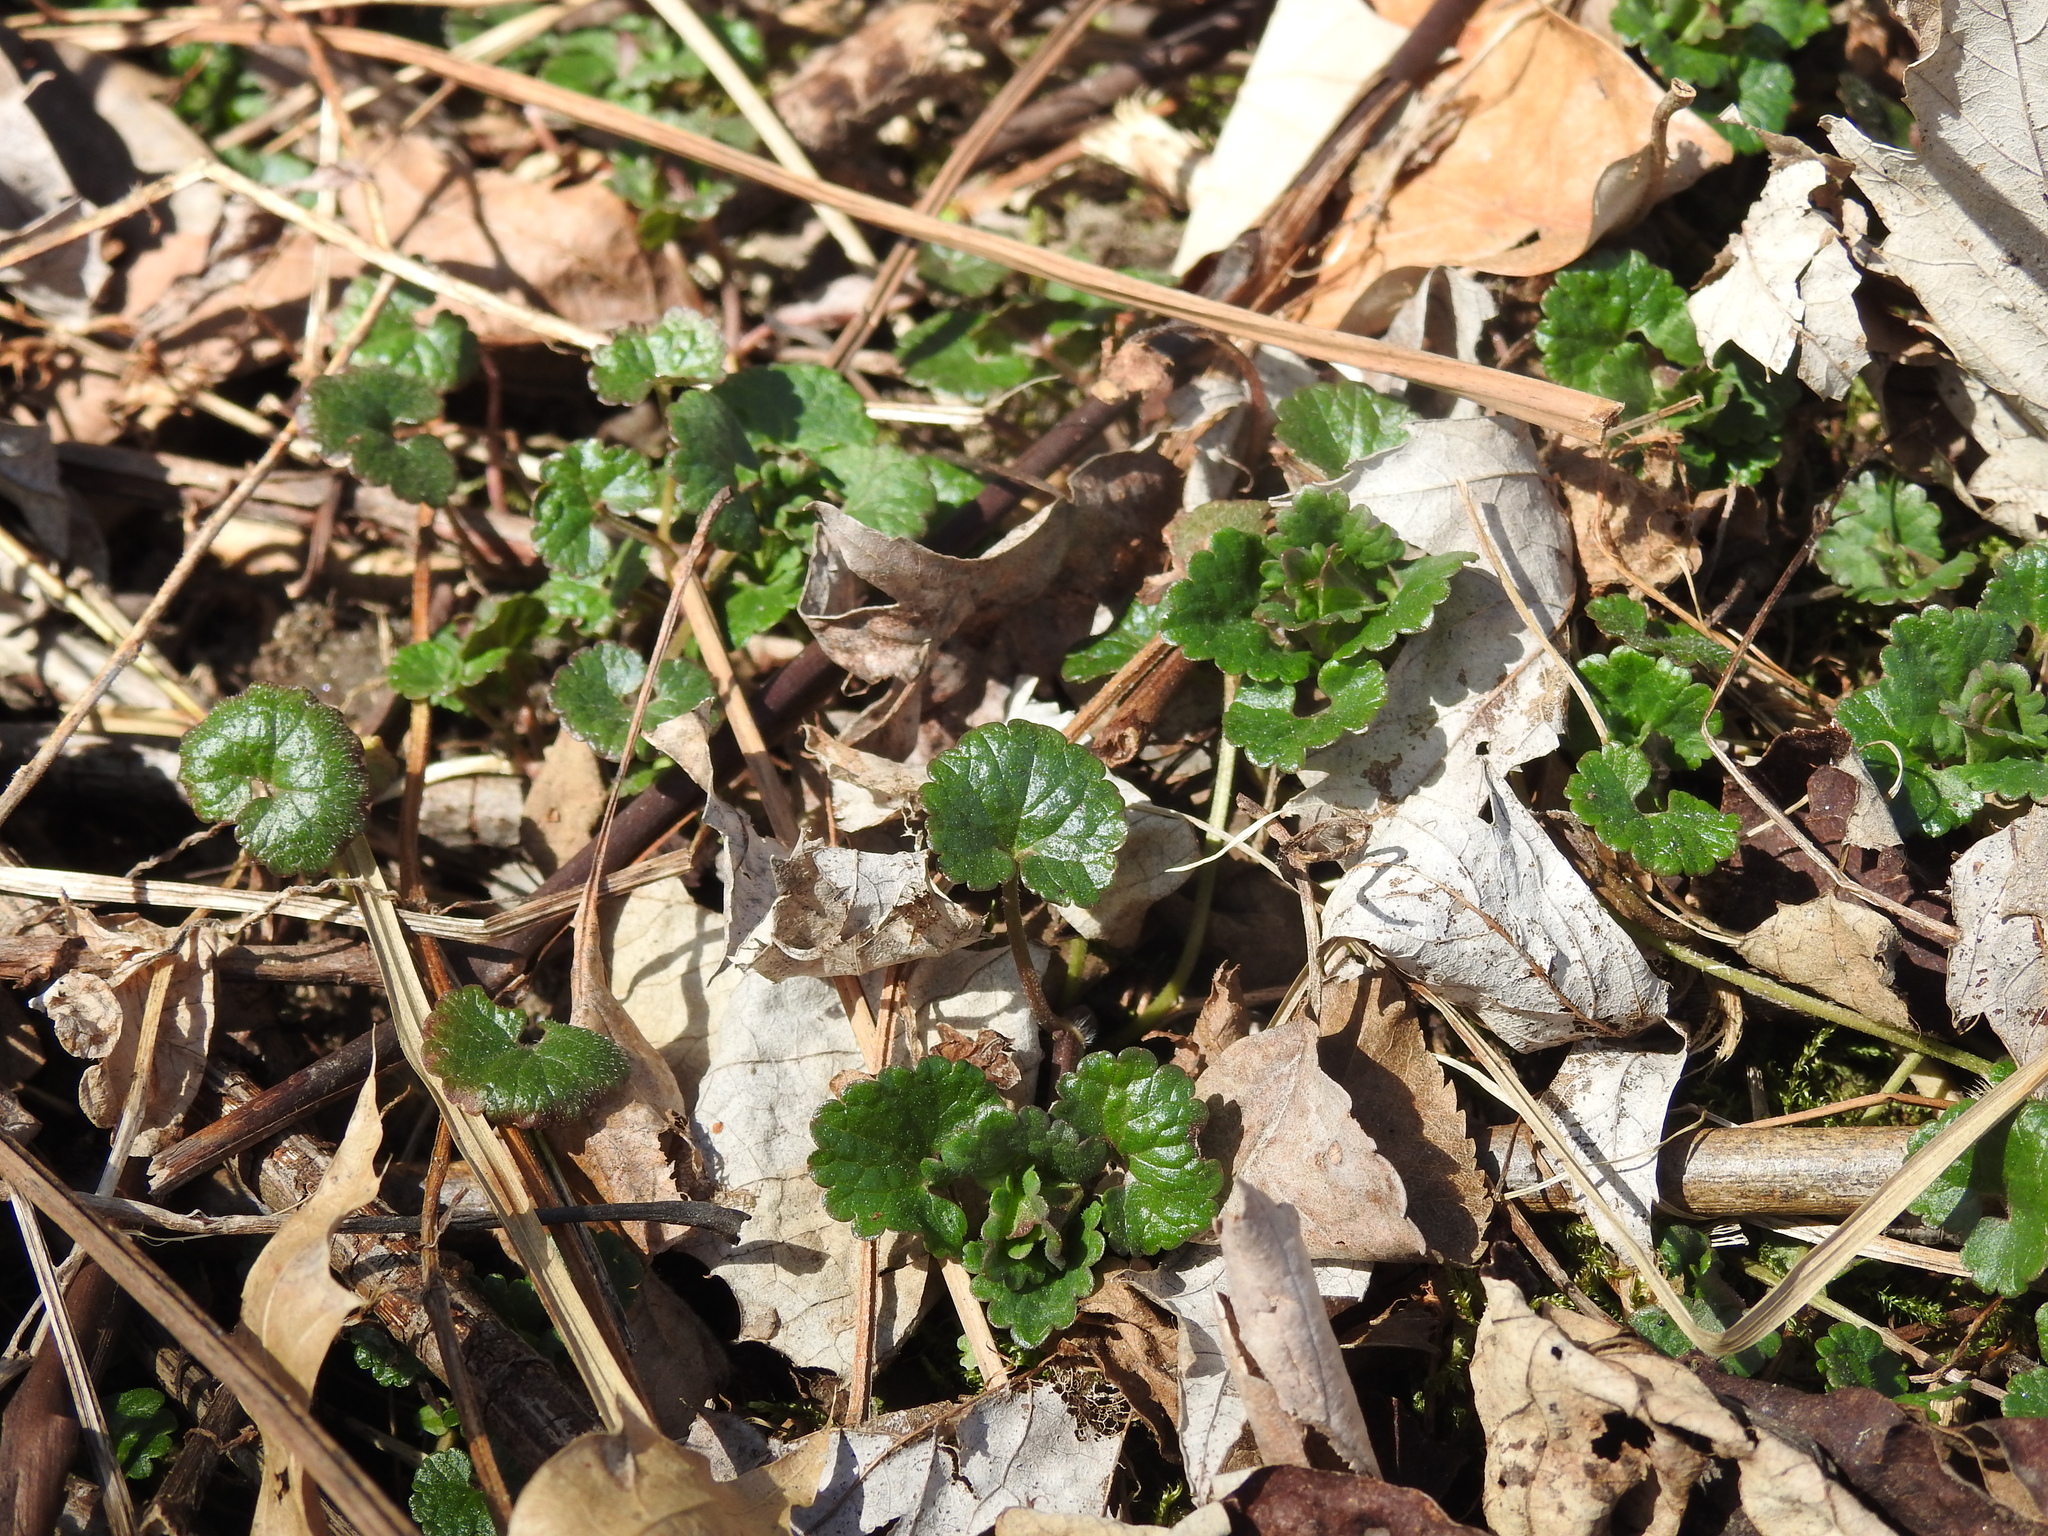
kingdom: Plantae
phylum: Tracheophyta
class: Magnoliopsida
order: Lamiales
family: Lamiaceae
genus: Glechoma
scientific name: Glechoma hederacea
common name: Ground ivy
